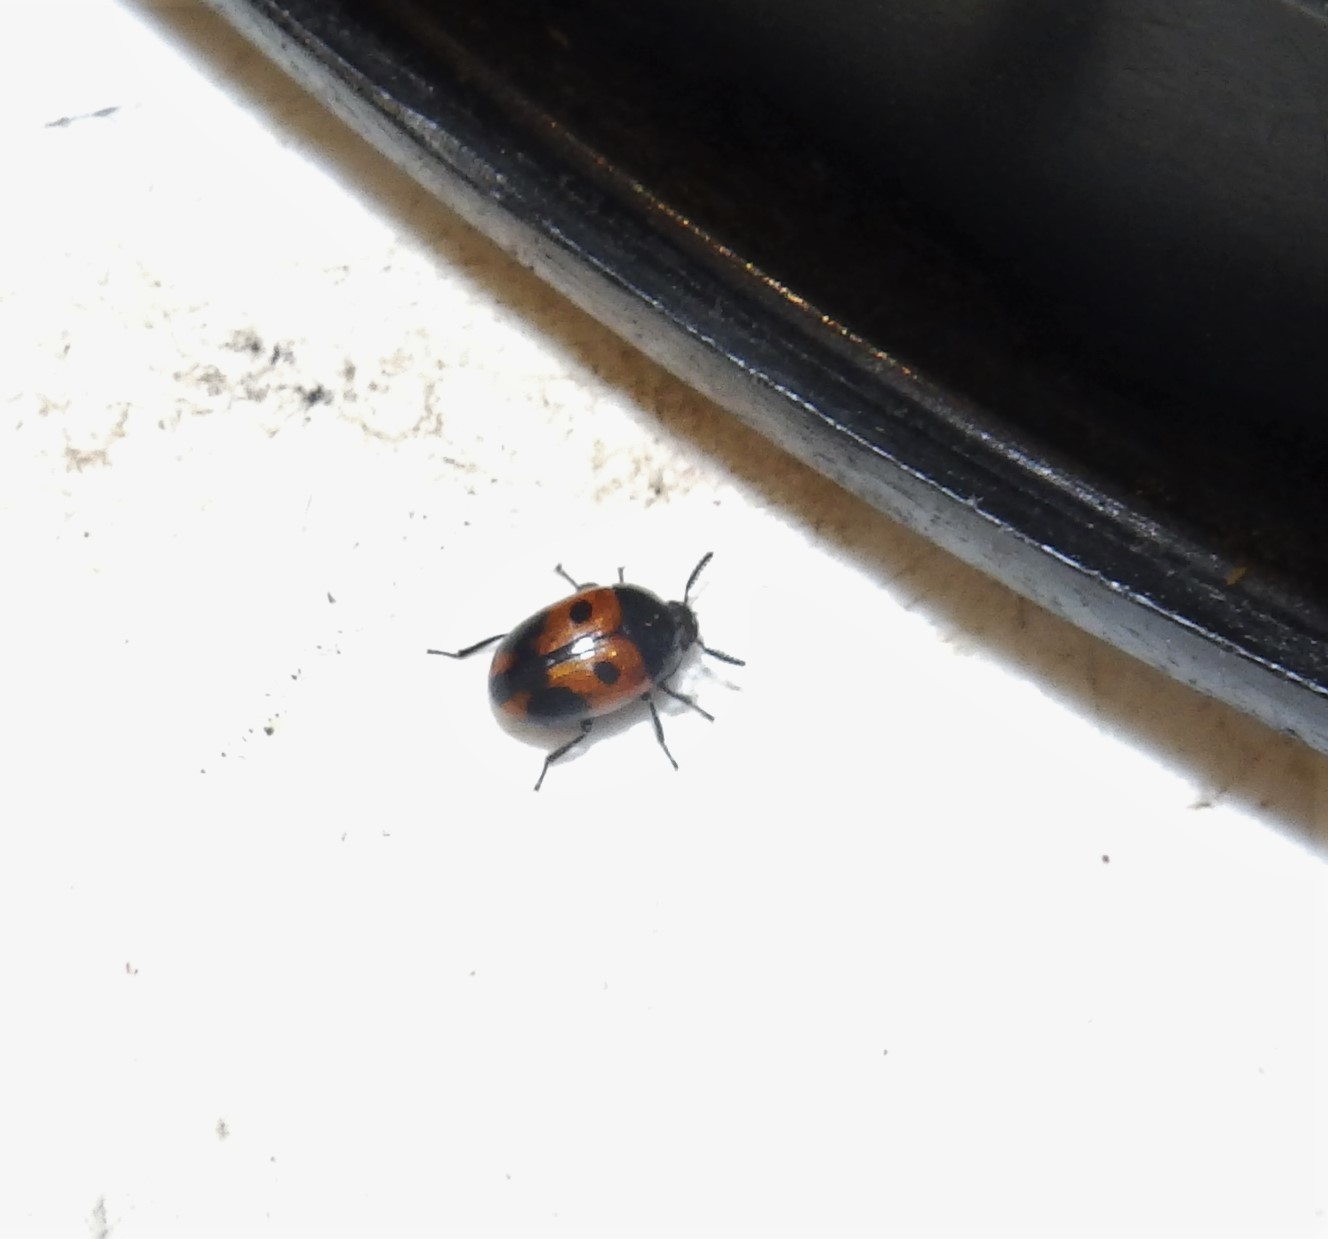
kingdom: Animalia
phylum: Arthropoda
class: Insecta
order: Coleoptera
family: Tenebrionidae
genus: Diaperis
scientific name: Diaperis maculata
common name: Darkling beetle
